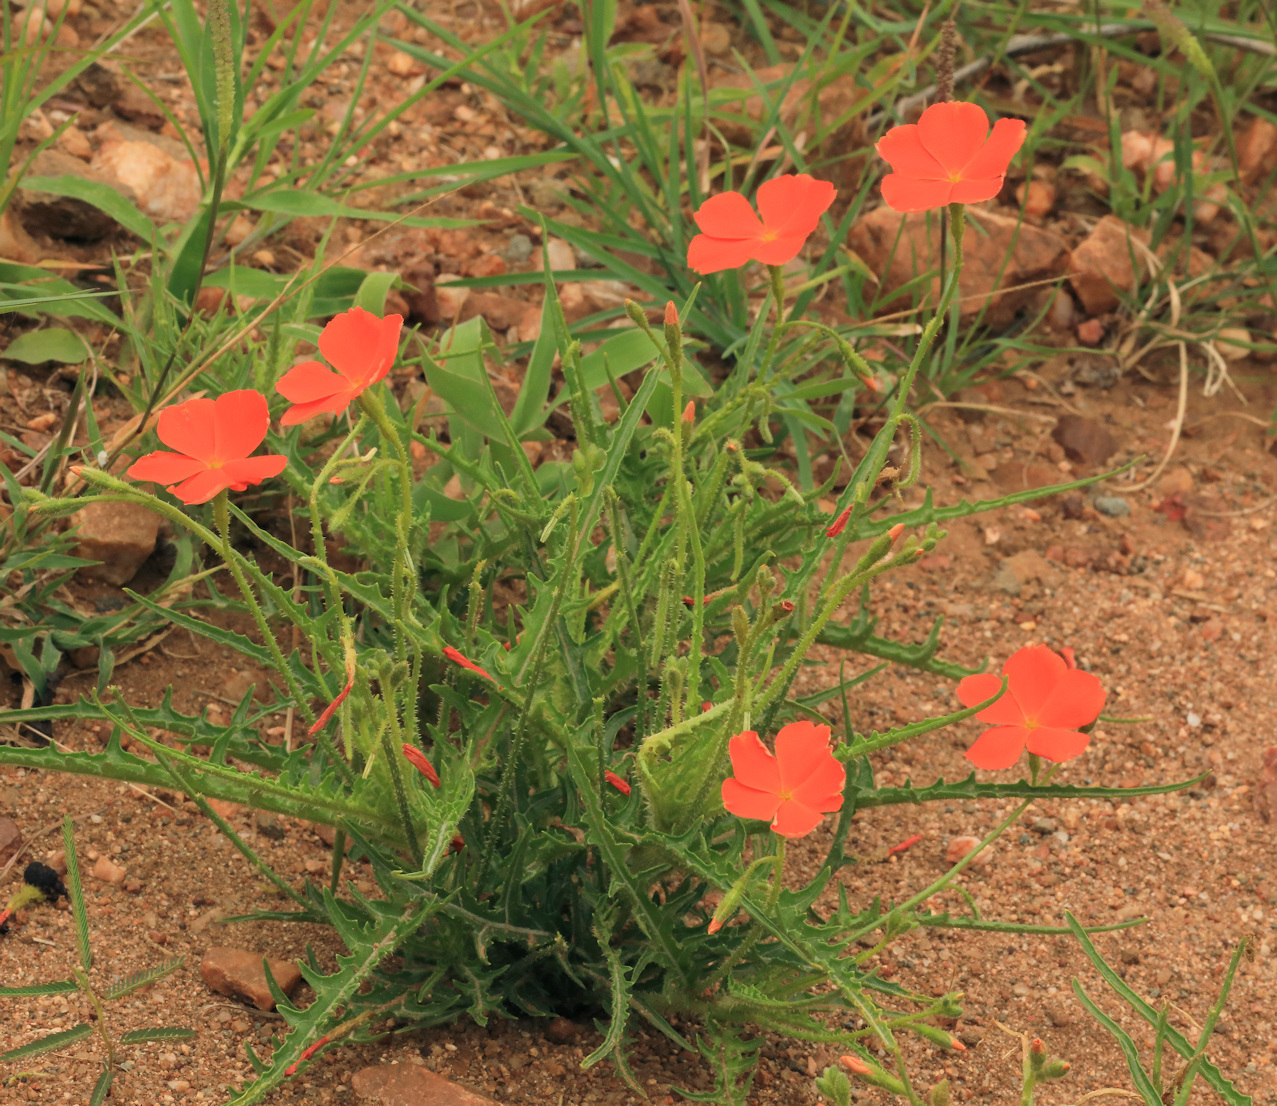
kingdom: Plantae
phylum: Tracheophyta
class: Magnoliopsida
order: Malpighiales
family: Turneraceae
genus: Tricliceras
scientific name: Tricliceras lacerata
